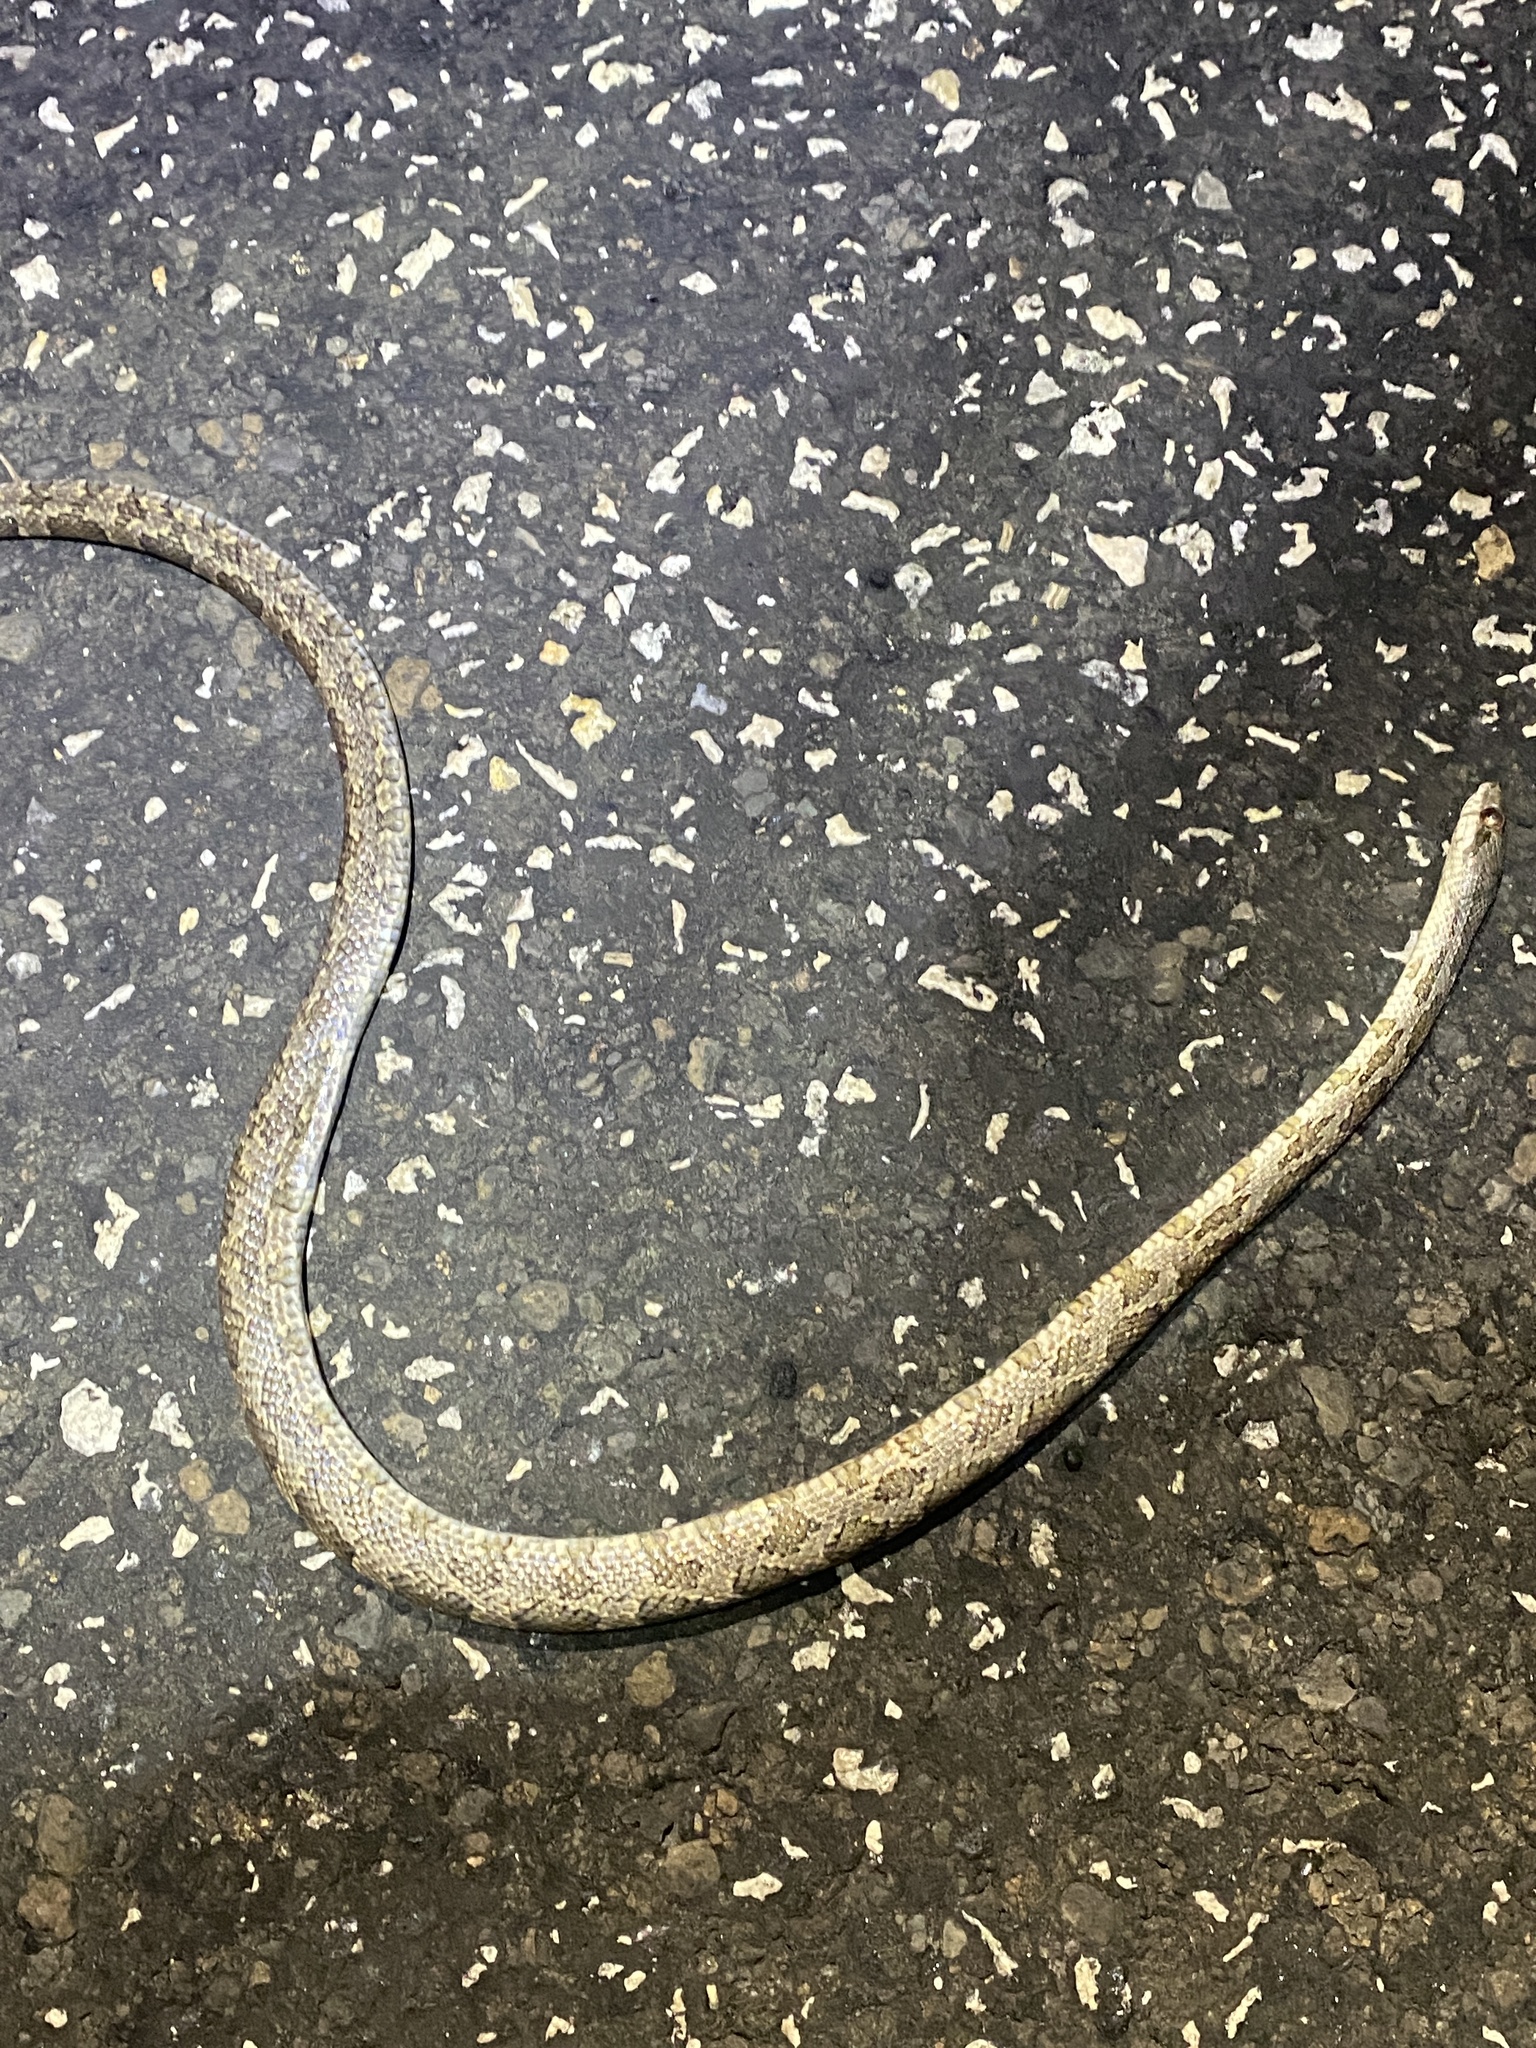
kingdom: Animalia
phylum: Chordata
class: Squamata
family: Colubridae
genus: Pantherophis
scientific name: Pantherophis obsoletus
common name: Black rat snake
